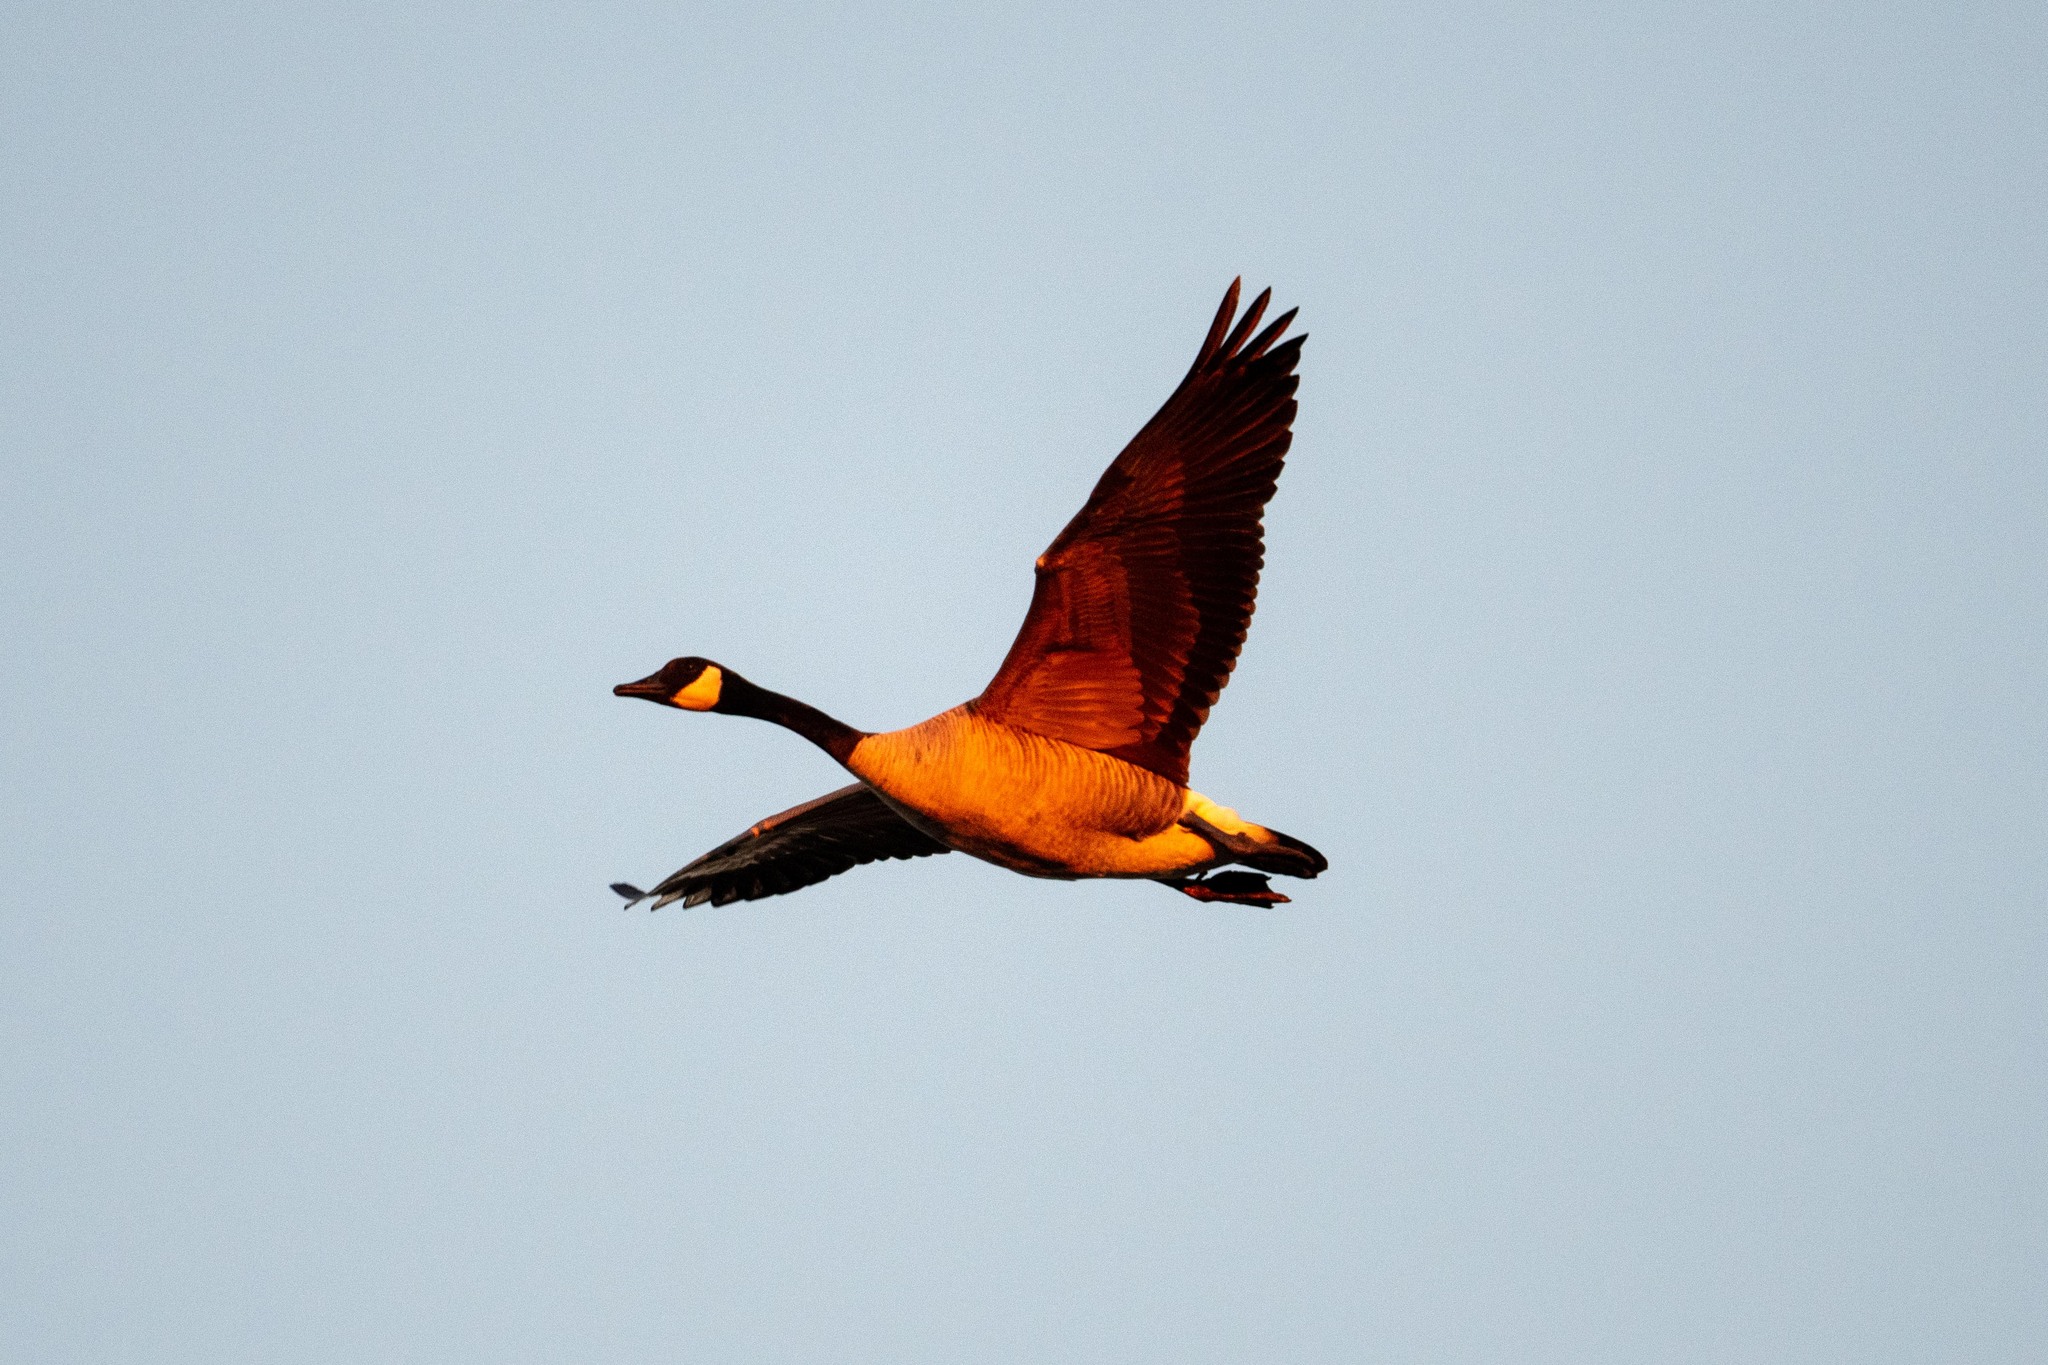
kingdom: Animalia
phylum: Chordata
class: Aves
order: Anseriformes
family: Anatidae
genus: Branta
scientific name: Branta canadensis
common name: Canada goose
